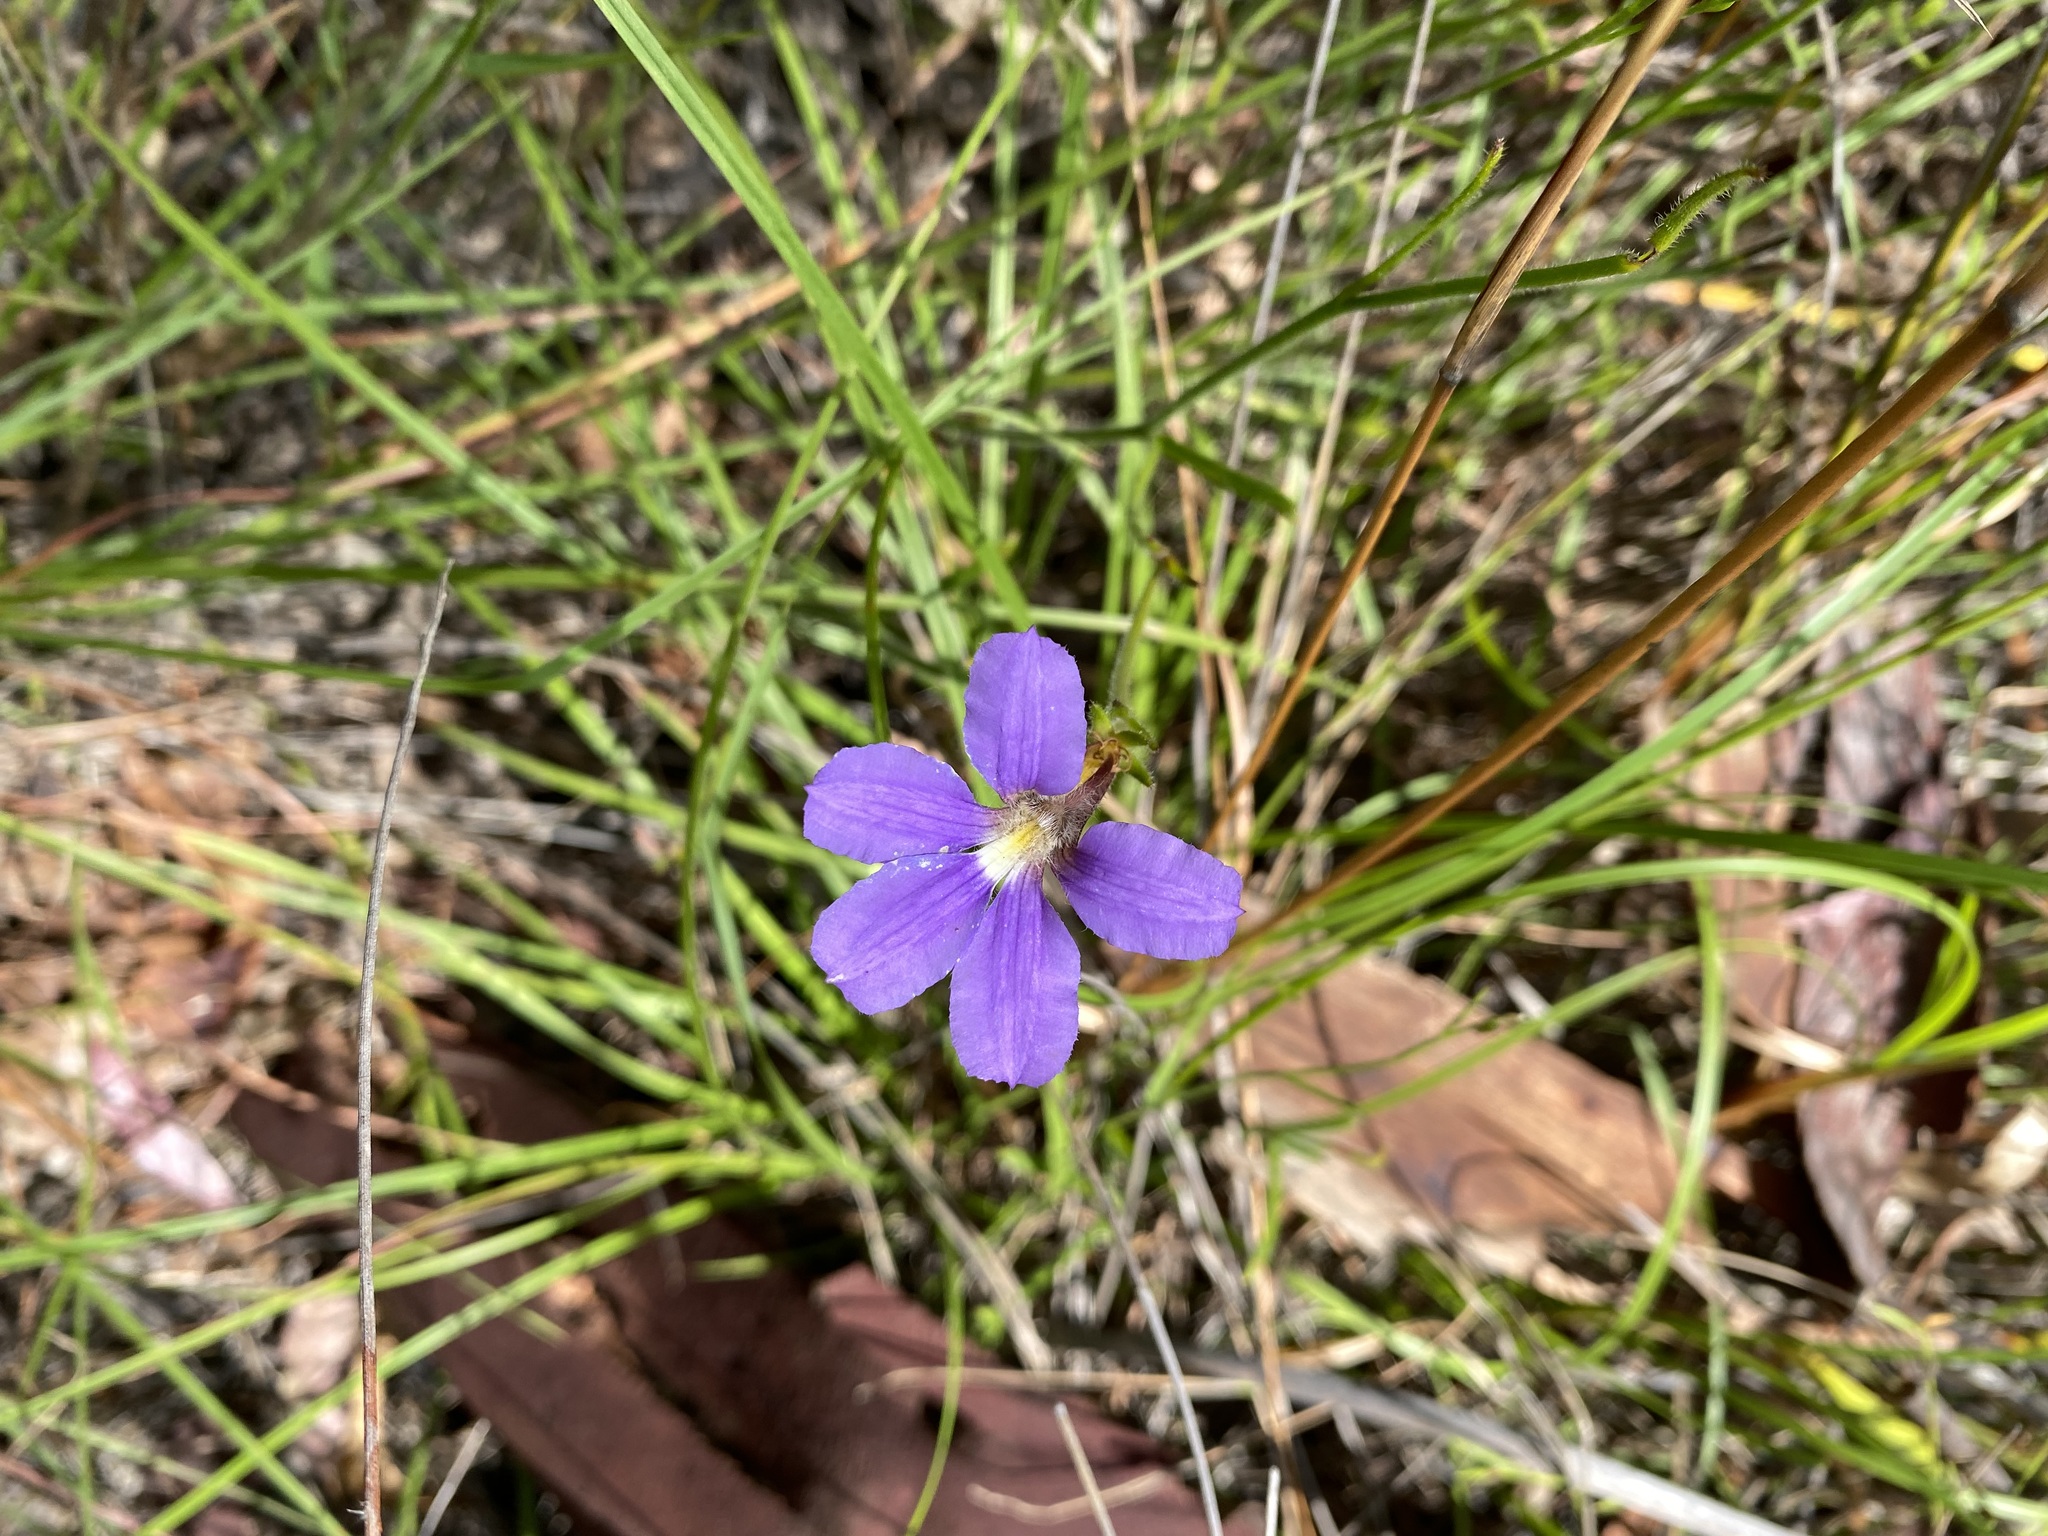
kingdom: Plantae
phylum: Tracheophyta
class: Magnoliopsida
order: Asterales
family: Goodeniaceae
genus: Scaevola
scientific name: Scaevola ramosissima
